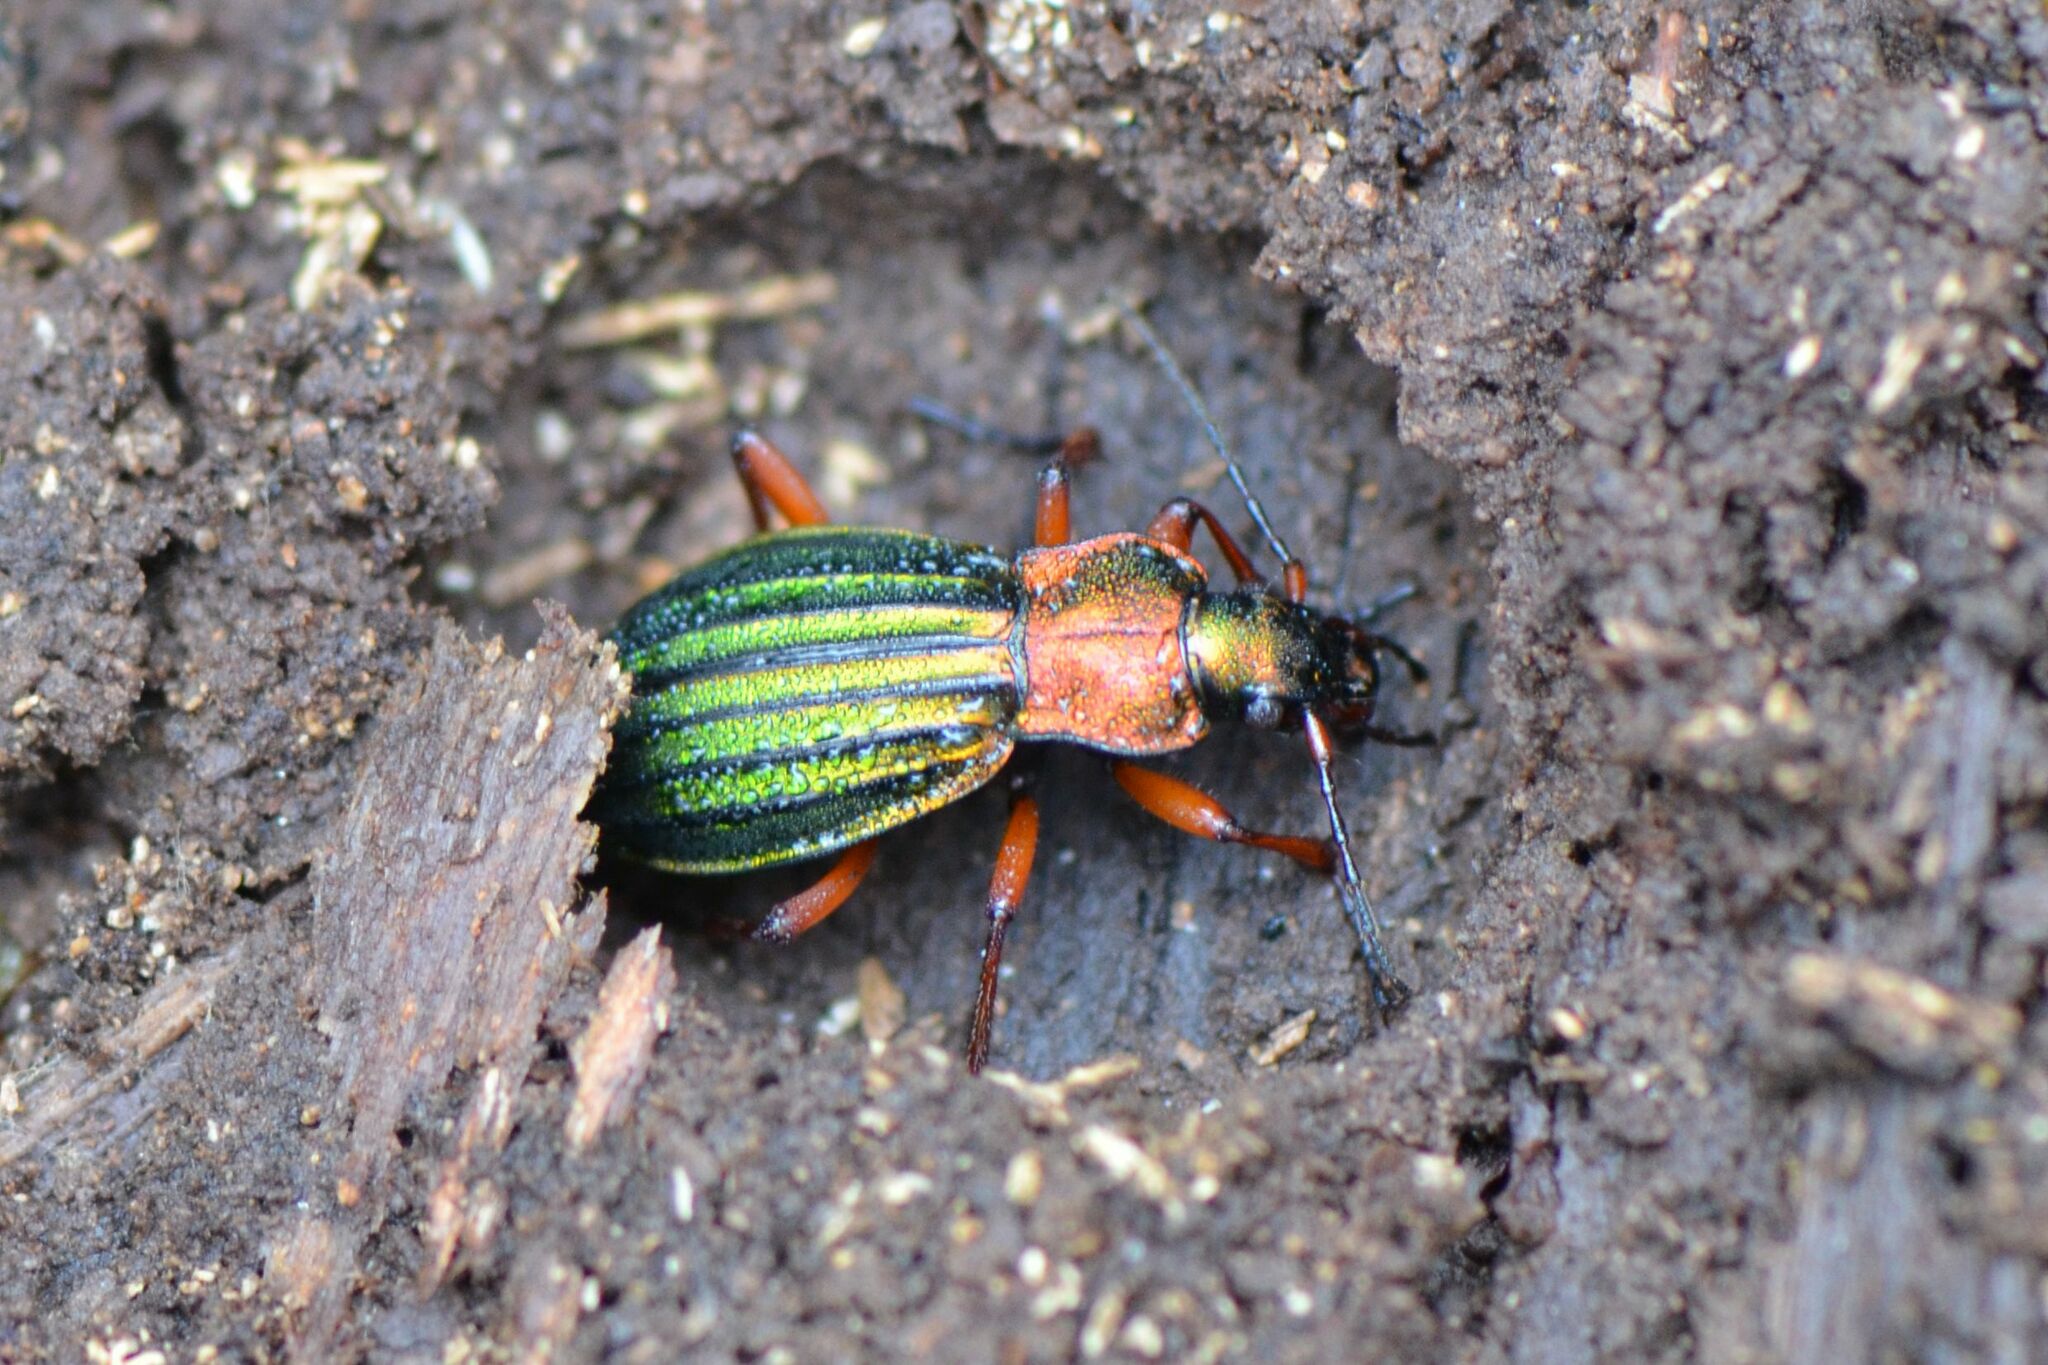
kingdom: Animalia
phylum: Arthropoda
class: Insecta
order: Coleoptera
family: Carabidae
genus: Carabus
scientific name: Carabus auronitens
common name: Carabus auronitens
